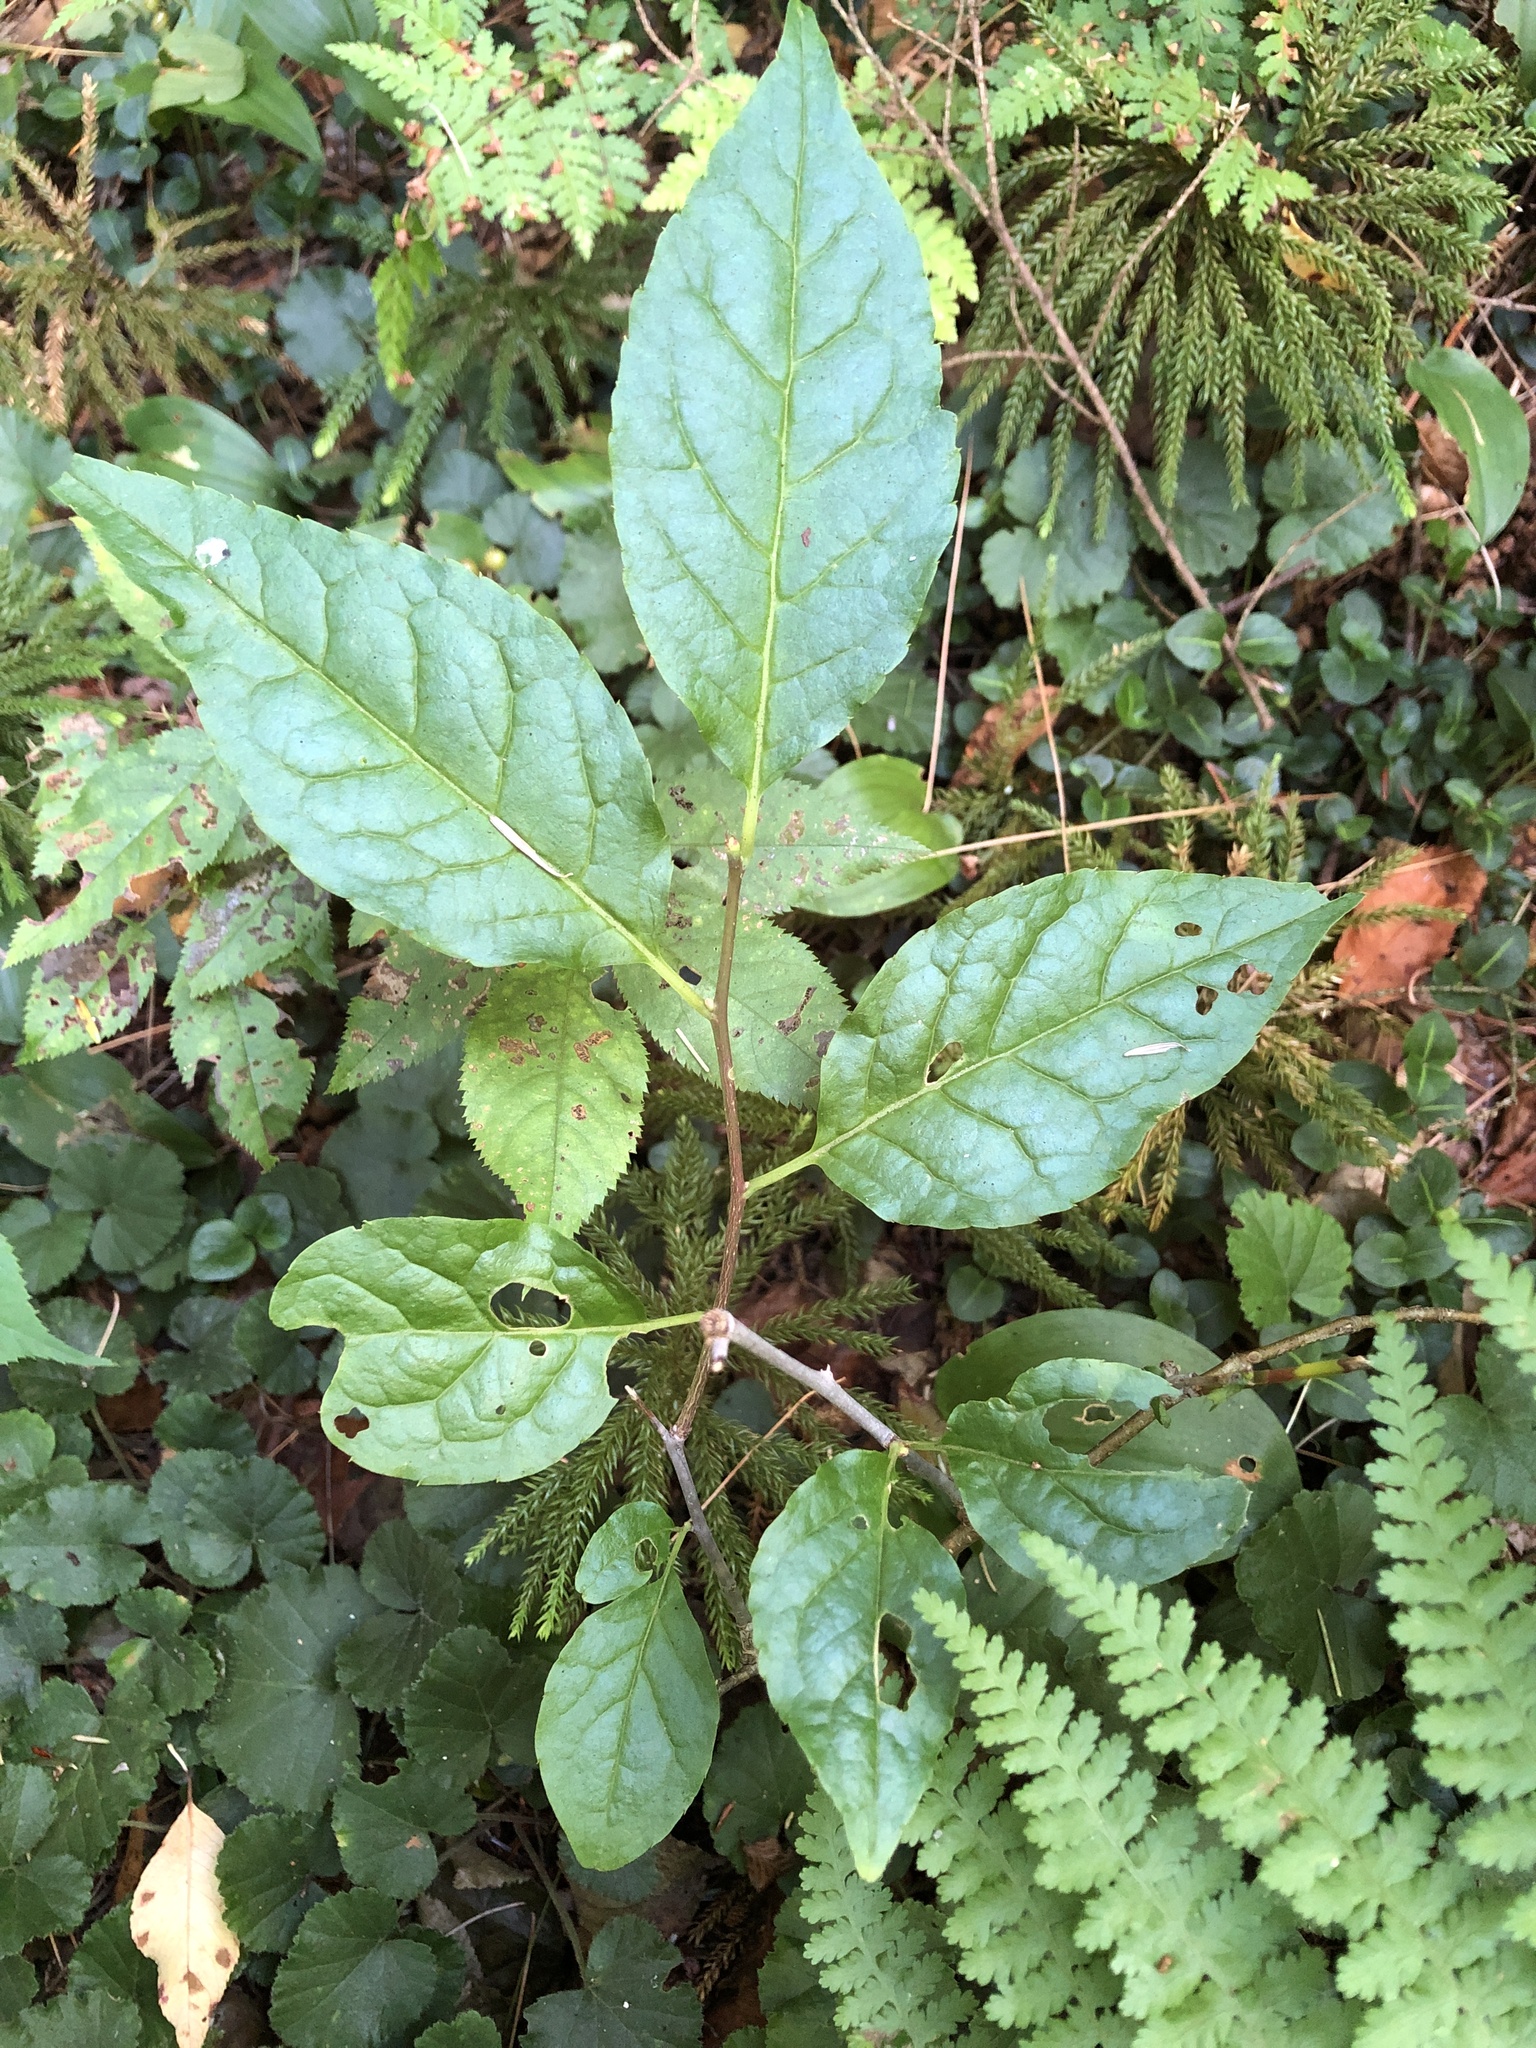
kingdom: Plantae
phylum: Tracheophyta
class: Magnoliopsida
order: Aquifoliales
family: Aquifoliaceae
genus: Ilex
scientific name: Ilex montana
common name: Mountain winterberry
